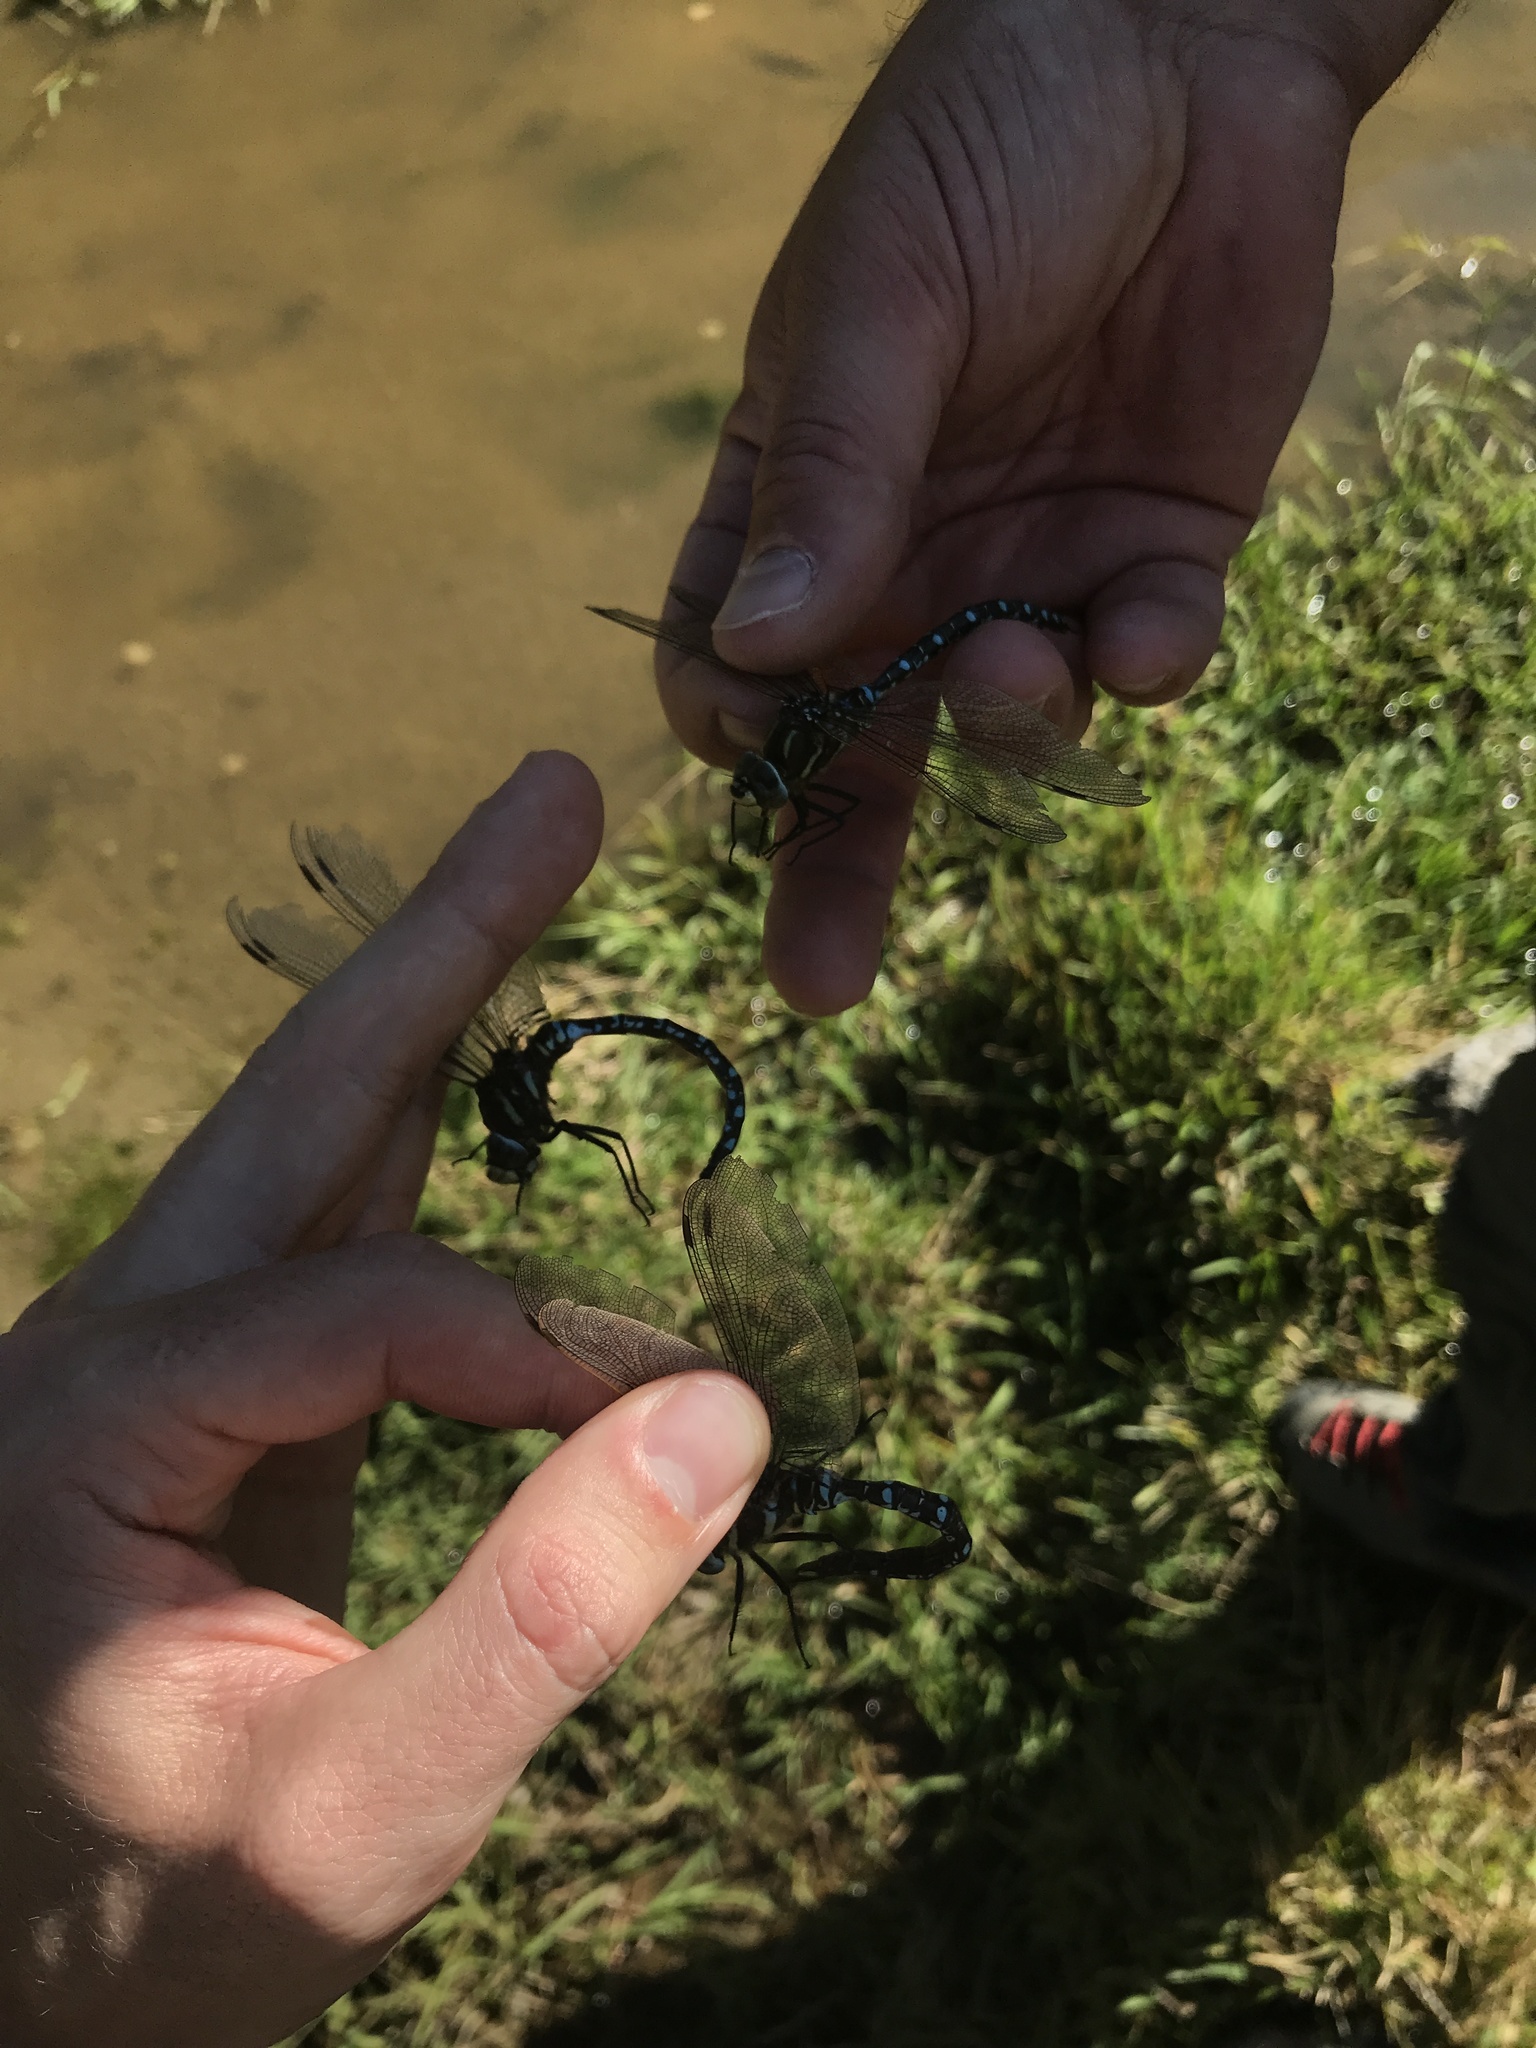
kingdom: Animalia
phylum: Arthropoda
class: Insecta
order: Odonata
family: Aeshnidae
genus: Aeshna
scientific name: Aeshna juncea
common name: Moorland hawker
